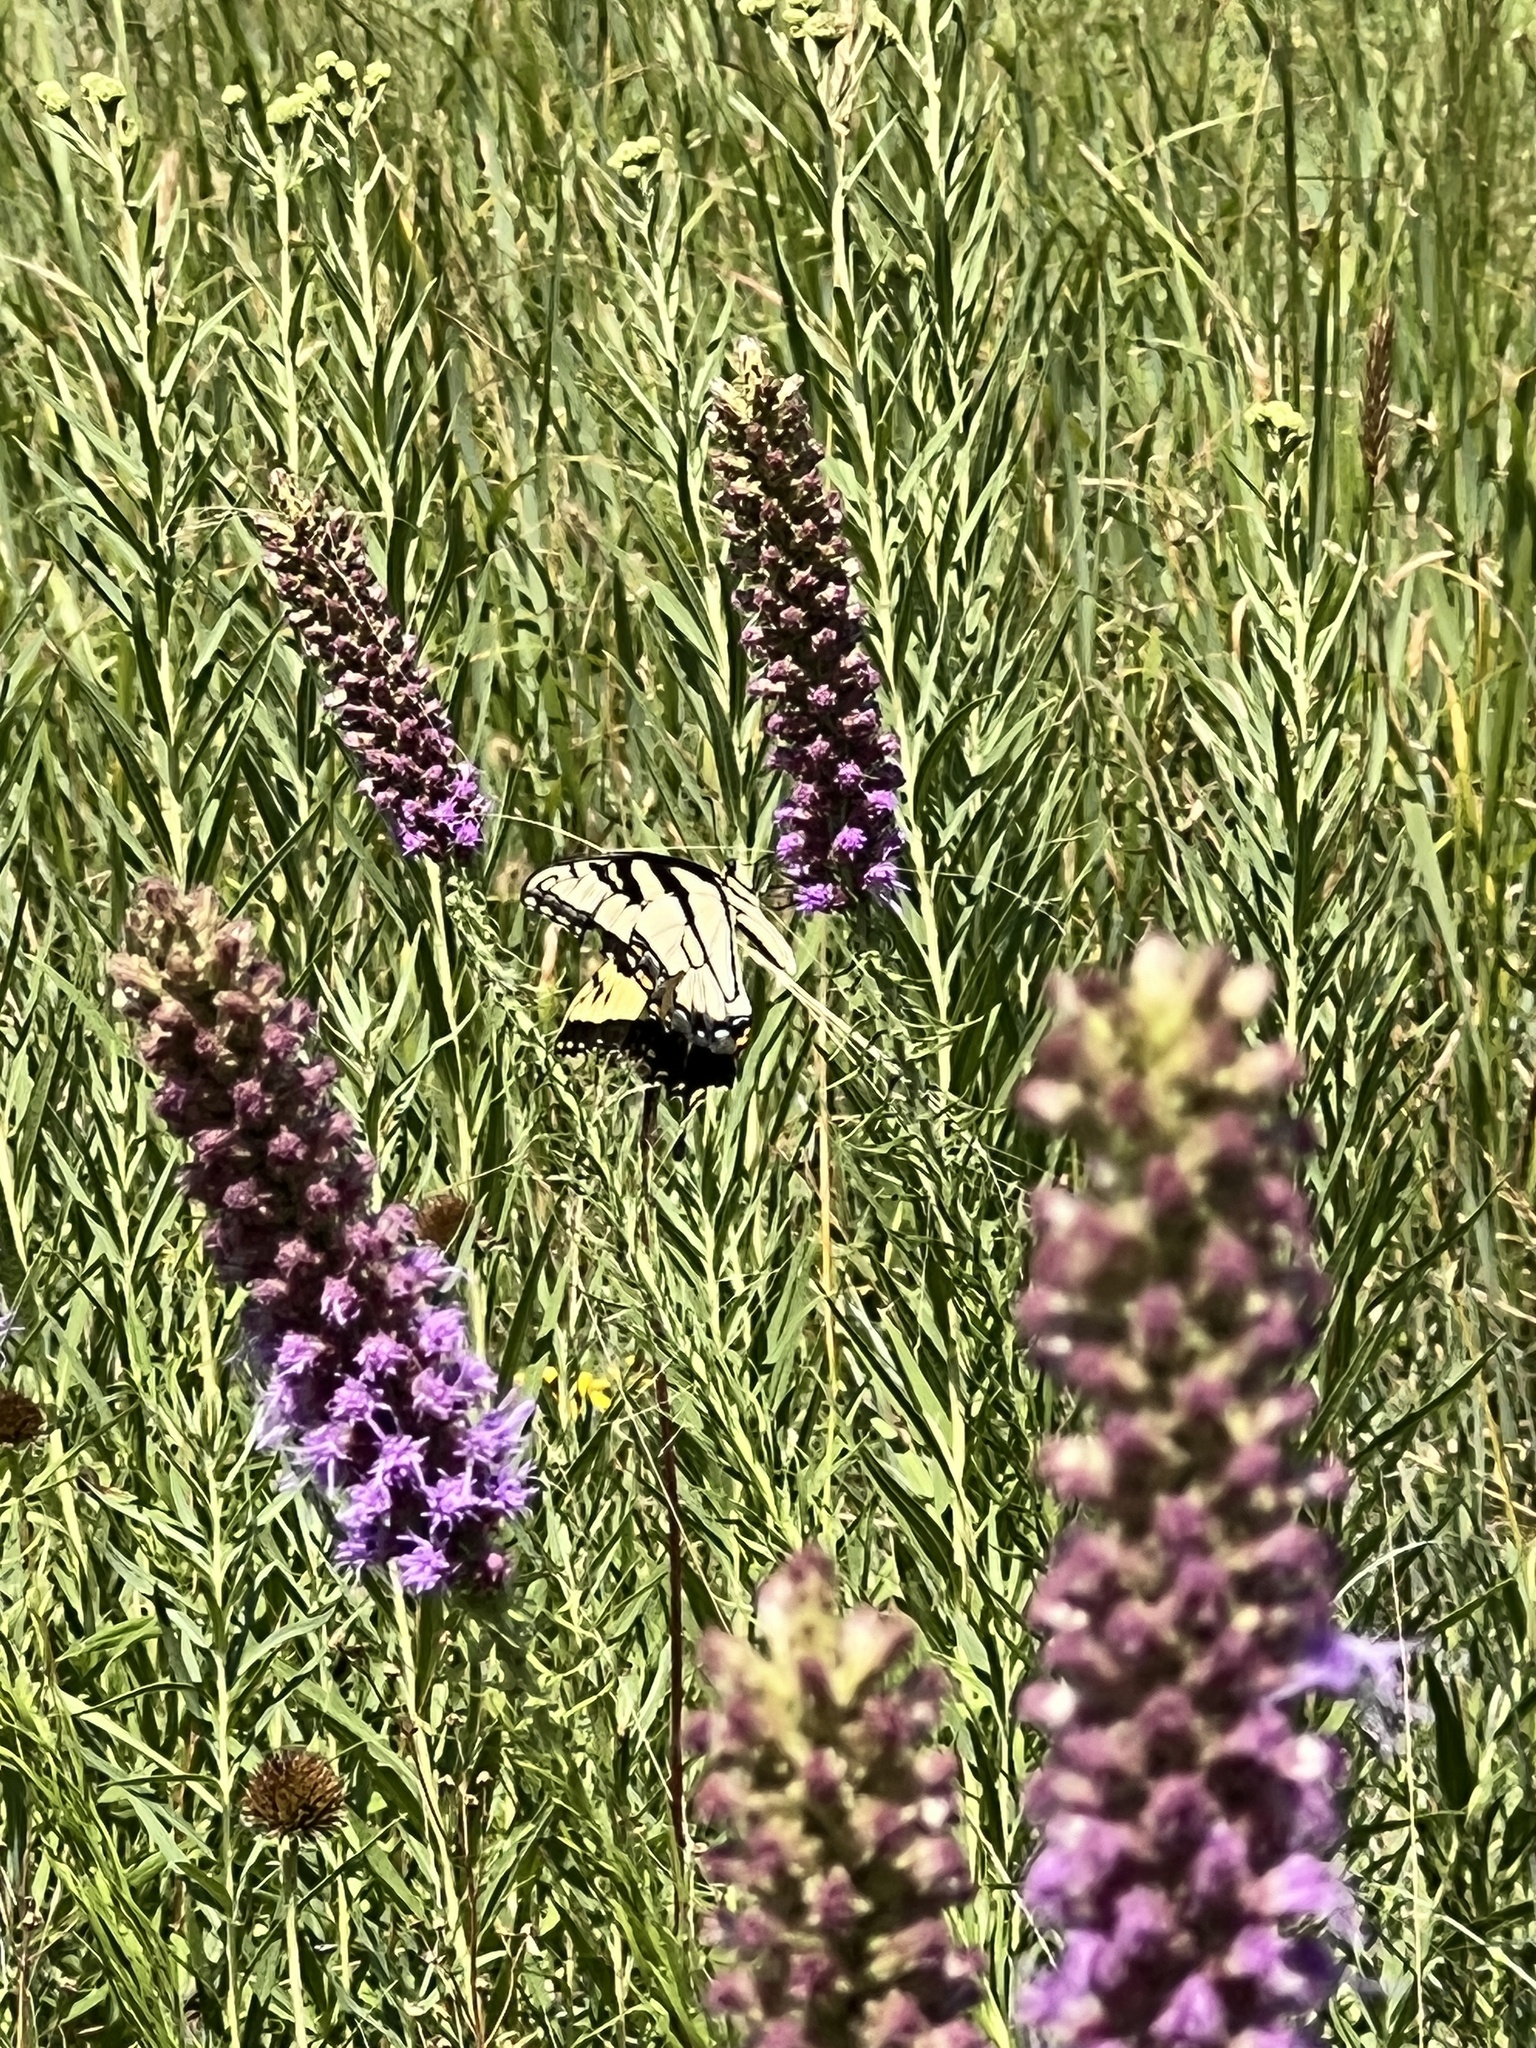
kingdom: Animalia
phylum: Arthropoda
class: Insecta
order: Lepidoptera
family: Papilionidae
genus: Papilio
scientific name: Papilio glaucus
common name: Tiger swallowtail
